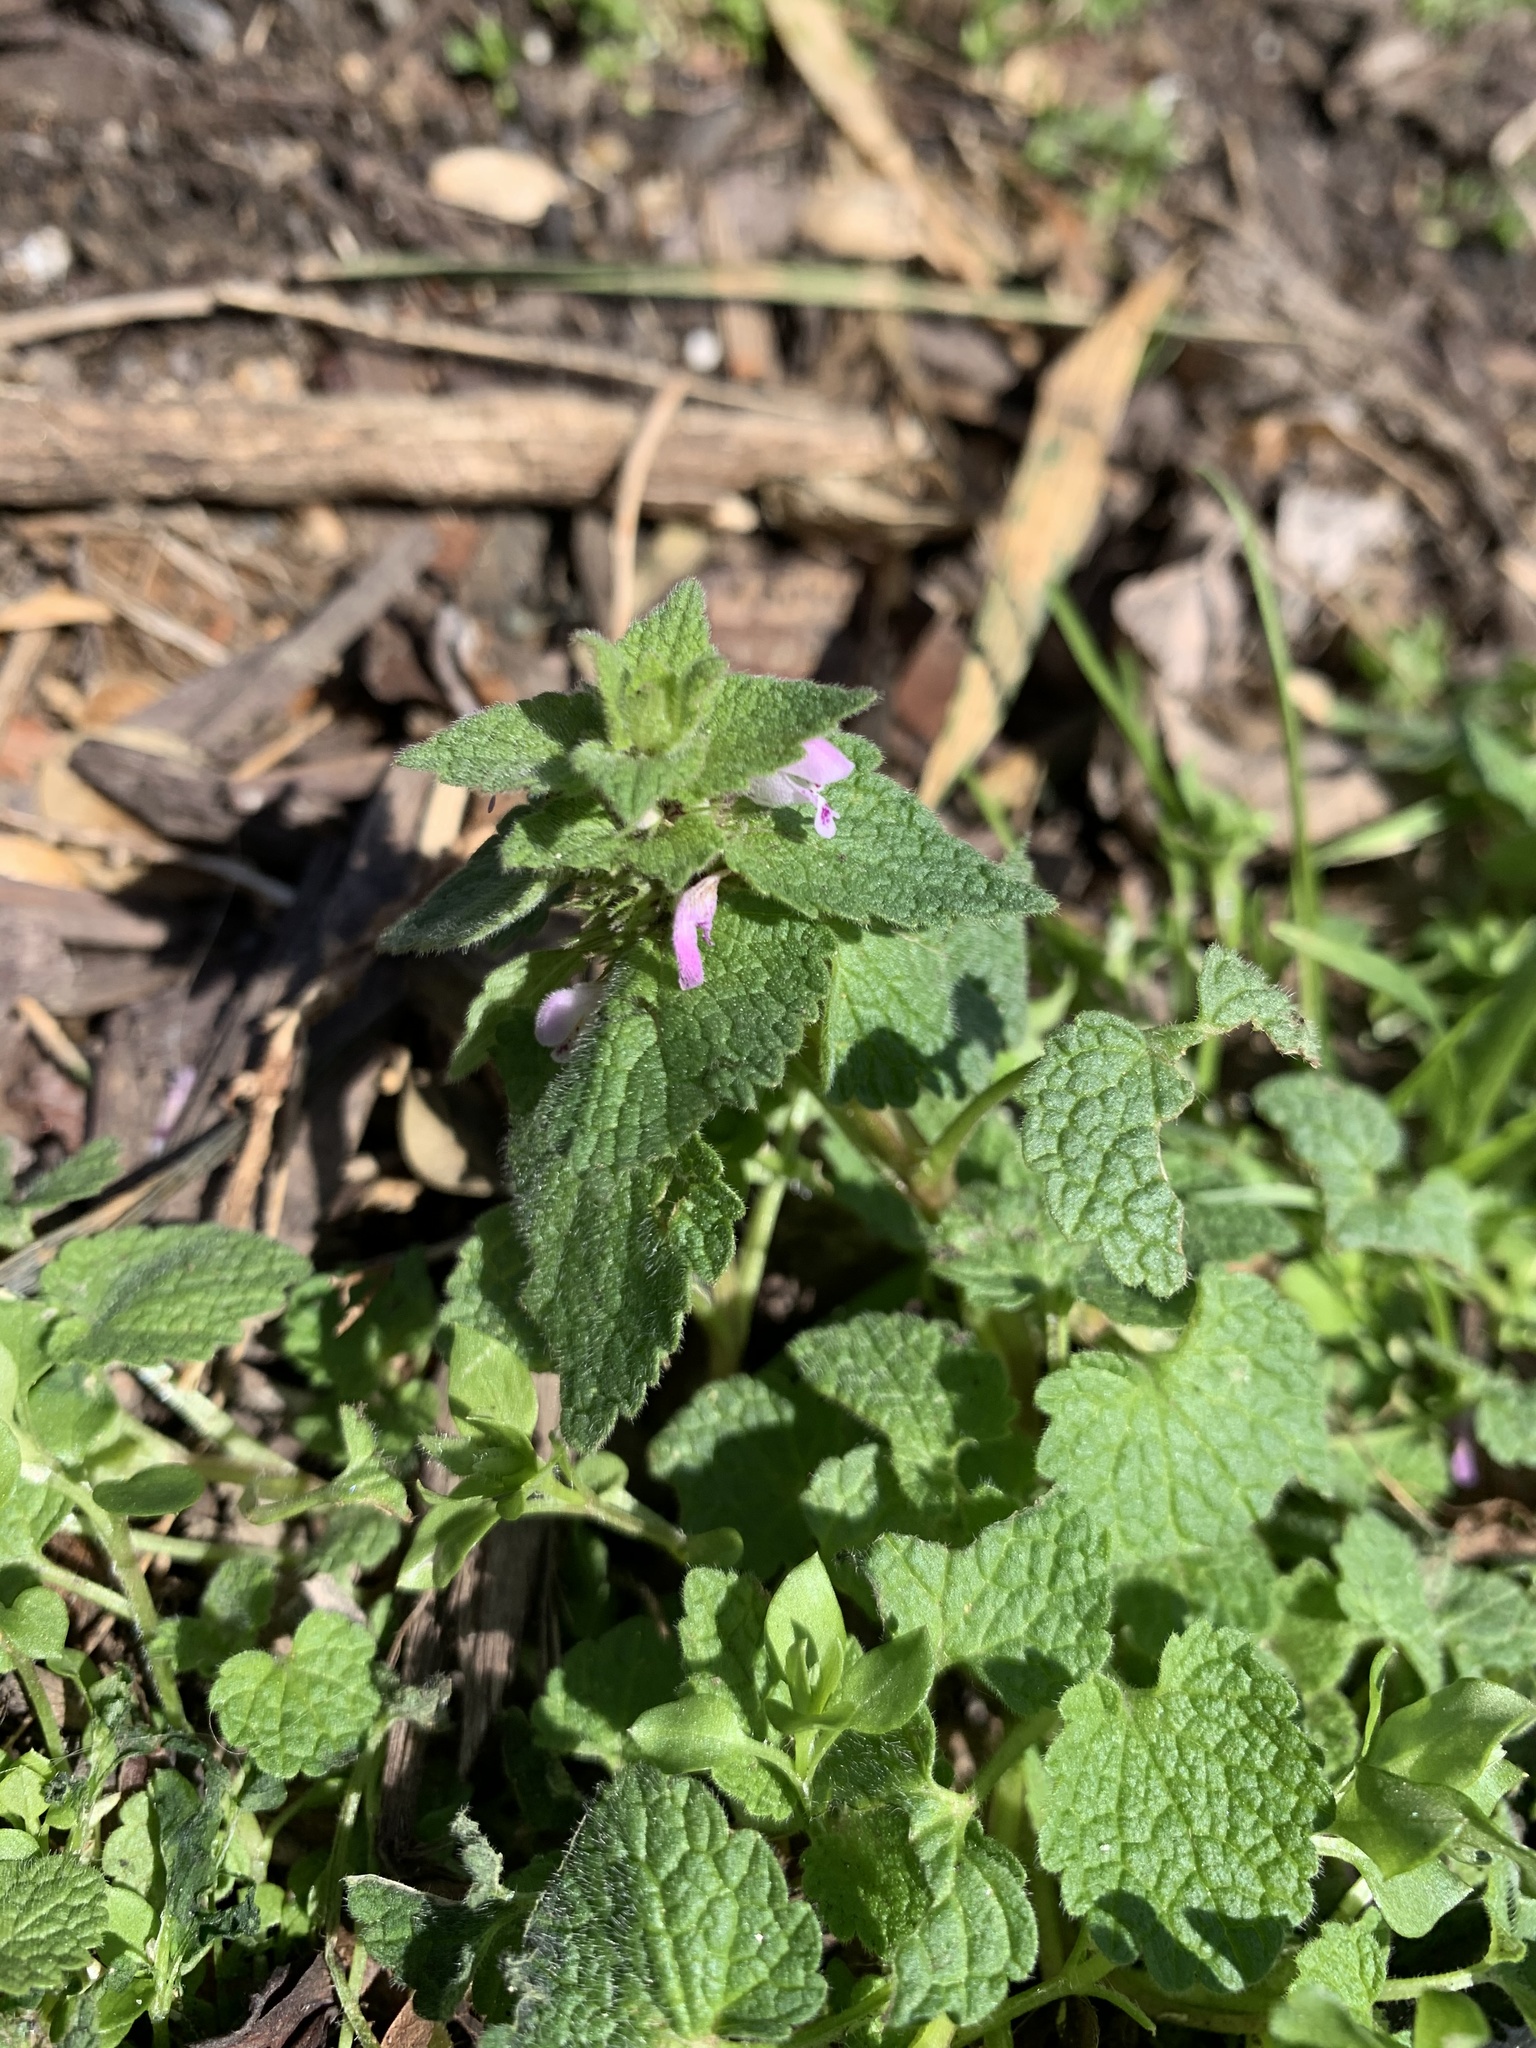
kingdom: Plantae
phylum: Tracheophyta
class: Magnoliopsida
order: Lamiales
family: Lamiaceae
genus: Lamium
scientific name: Lamium purpureum
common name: Red dead-nettle
